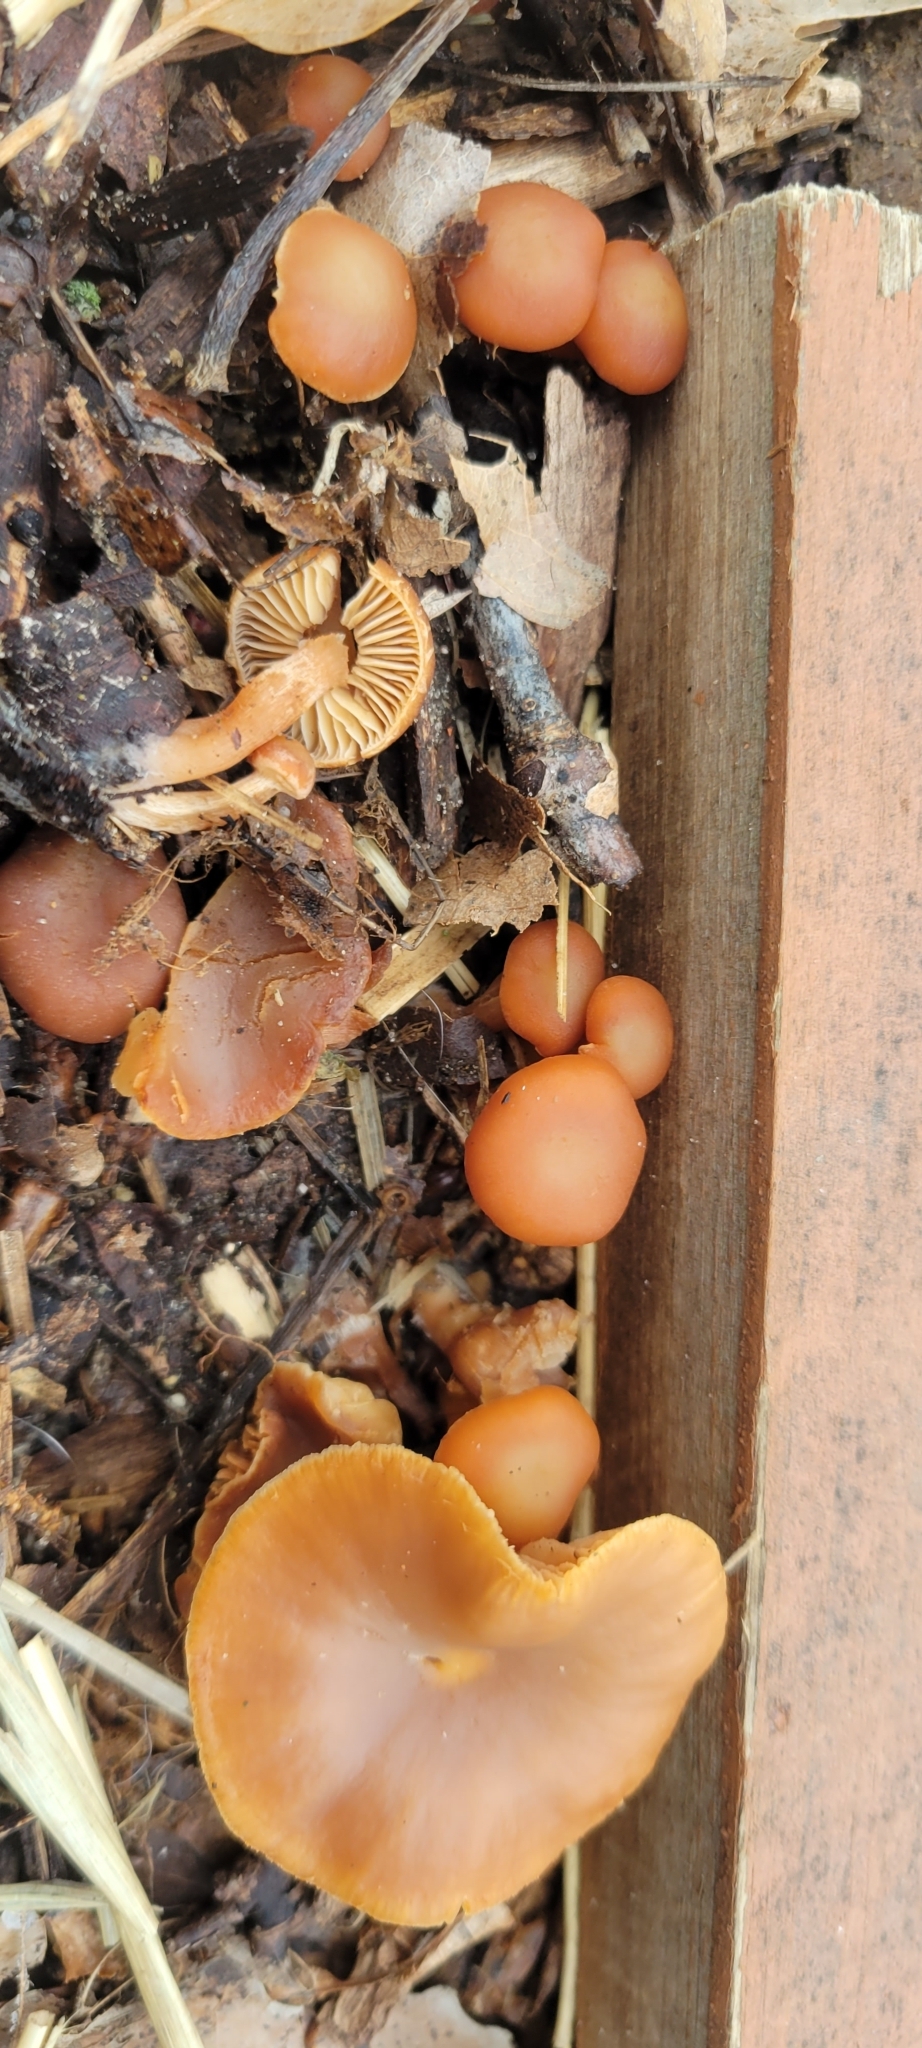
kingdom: Fungi
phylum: Basidiomycota
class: Agaricomycetes
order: Agaricales
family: Tubariaceae
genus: Tubaria
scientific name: Tubaria furfuracea
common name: Scurfy twiglet
